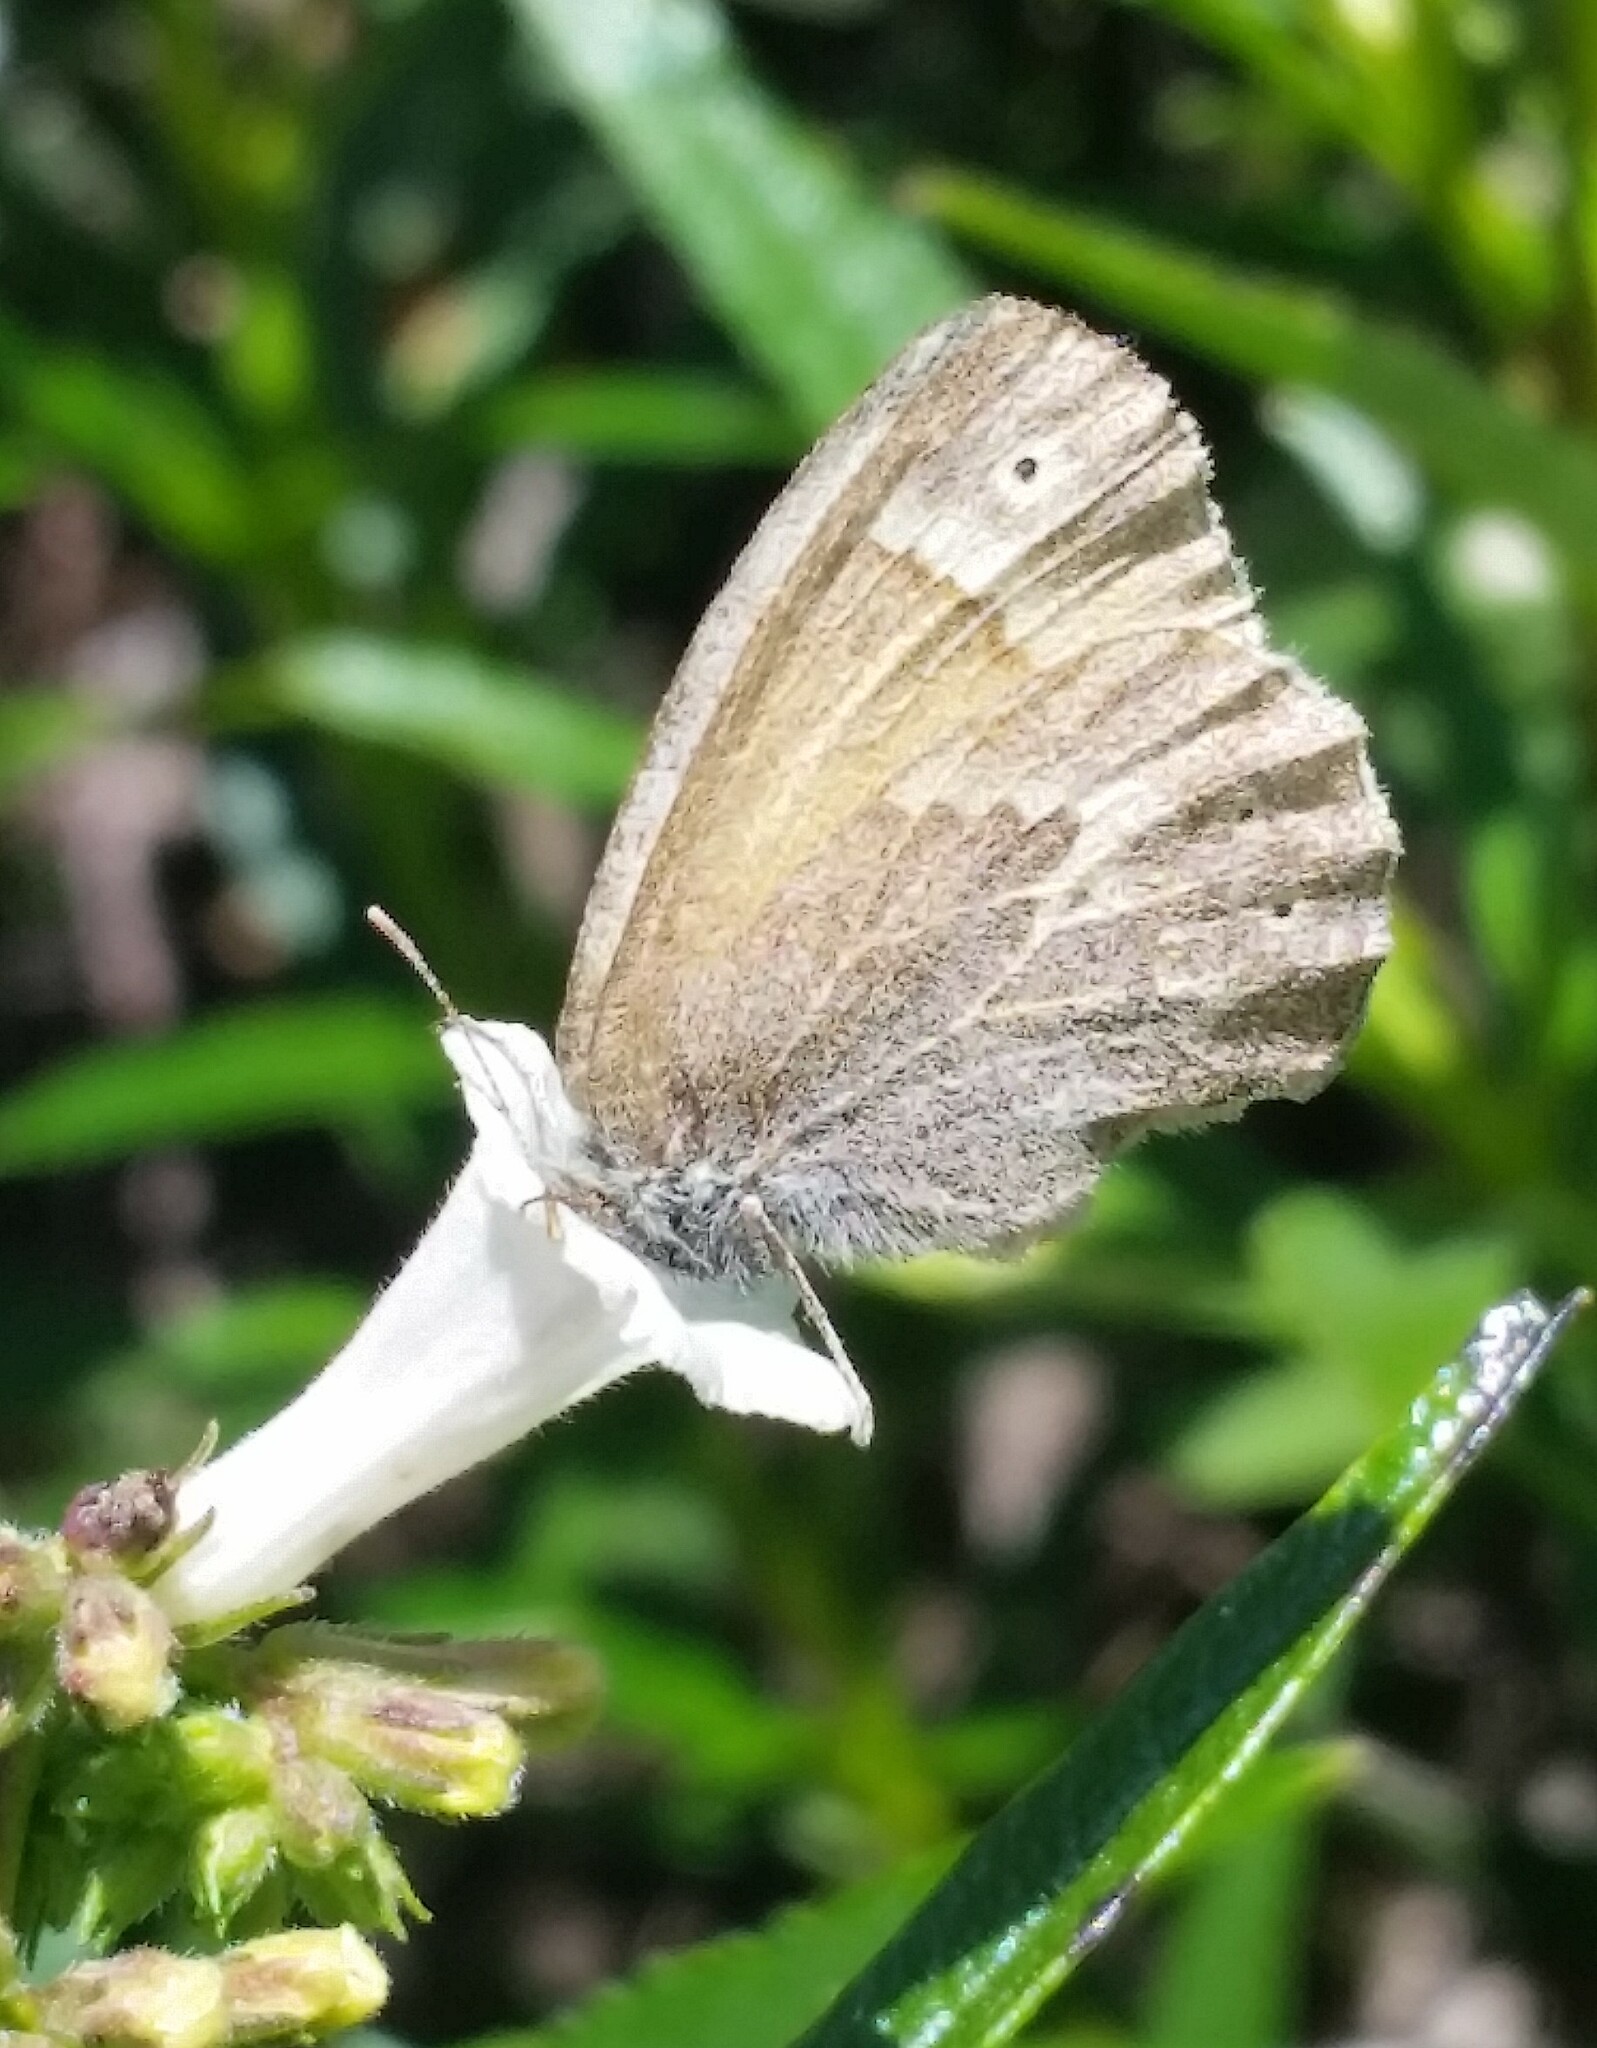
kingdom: Animalia
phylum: Arthropoda
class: Insecta
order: Lepidoptera
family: Nymphalidae
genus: Coenonympha
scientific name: Coenonympha california
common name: Common ringlet
